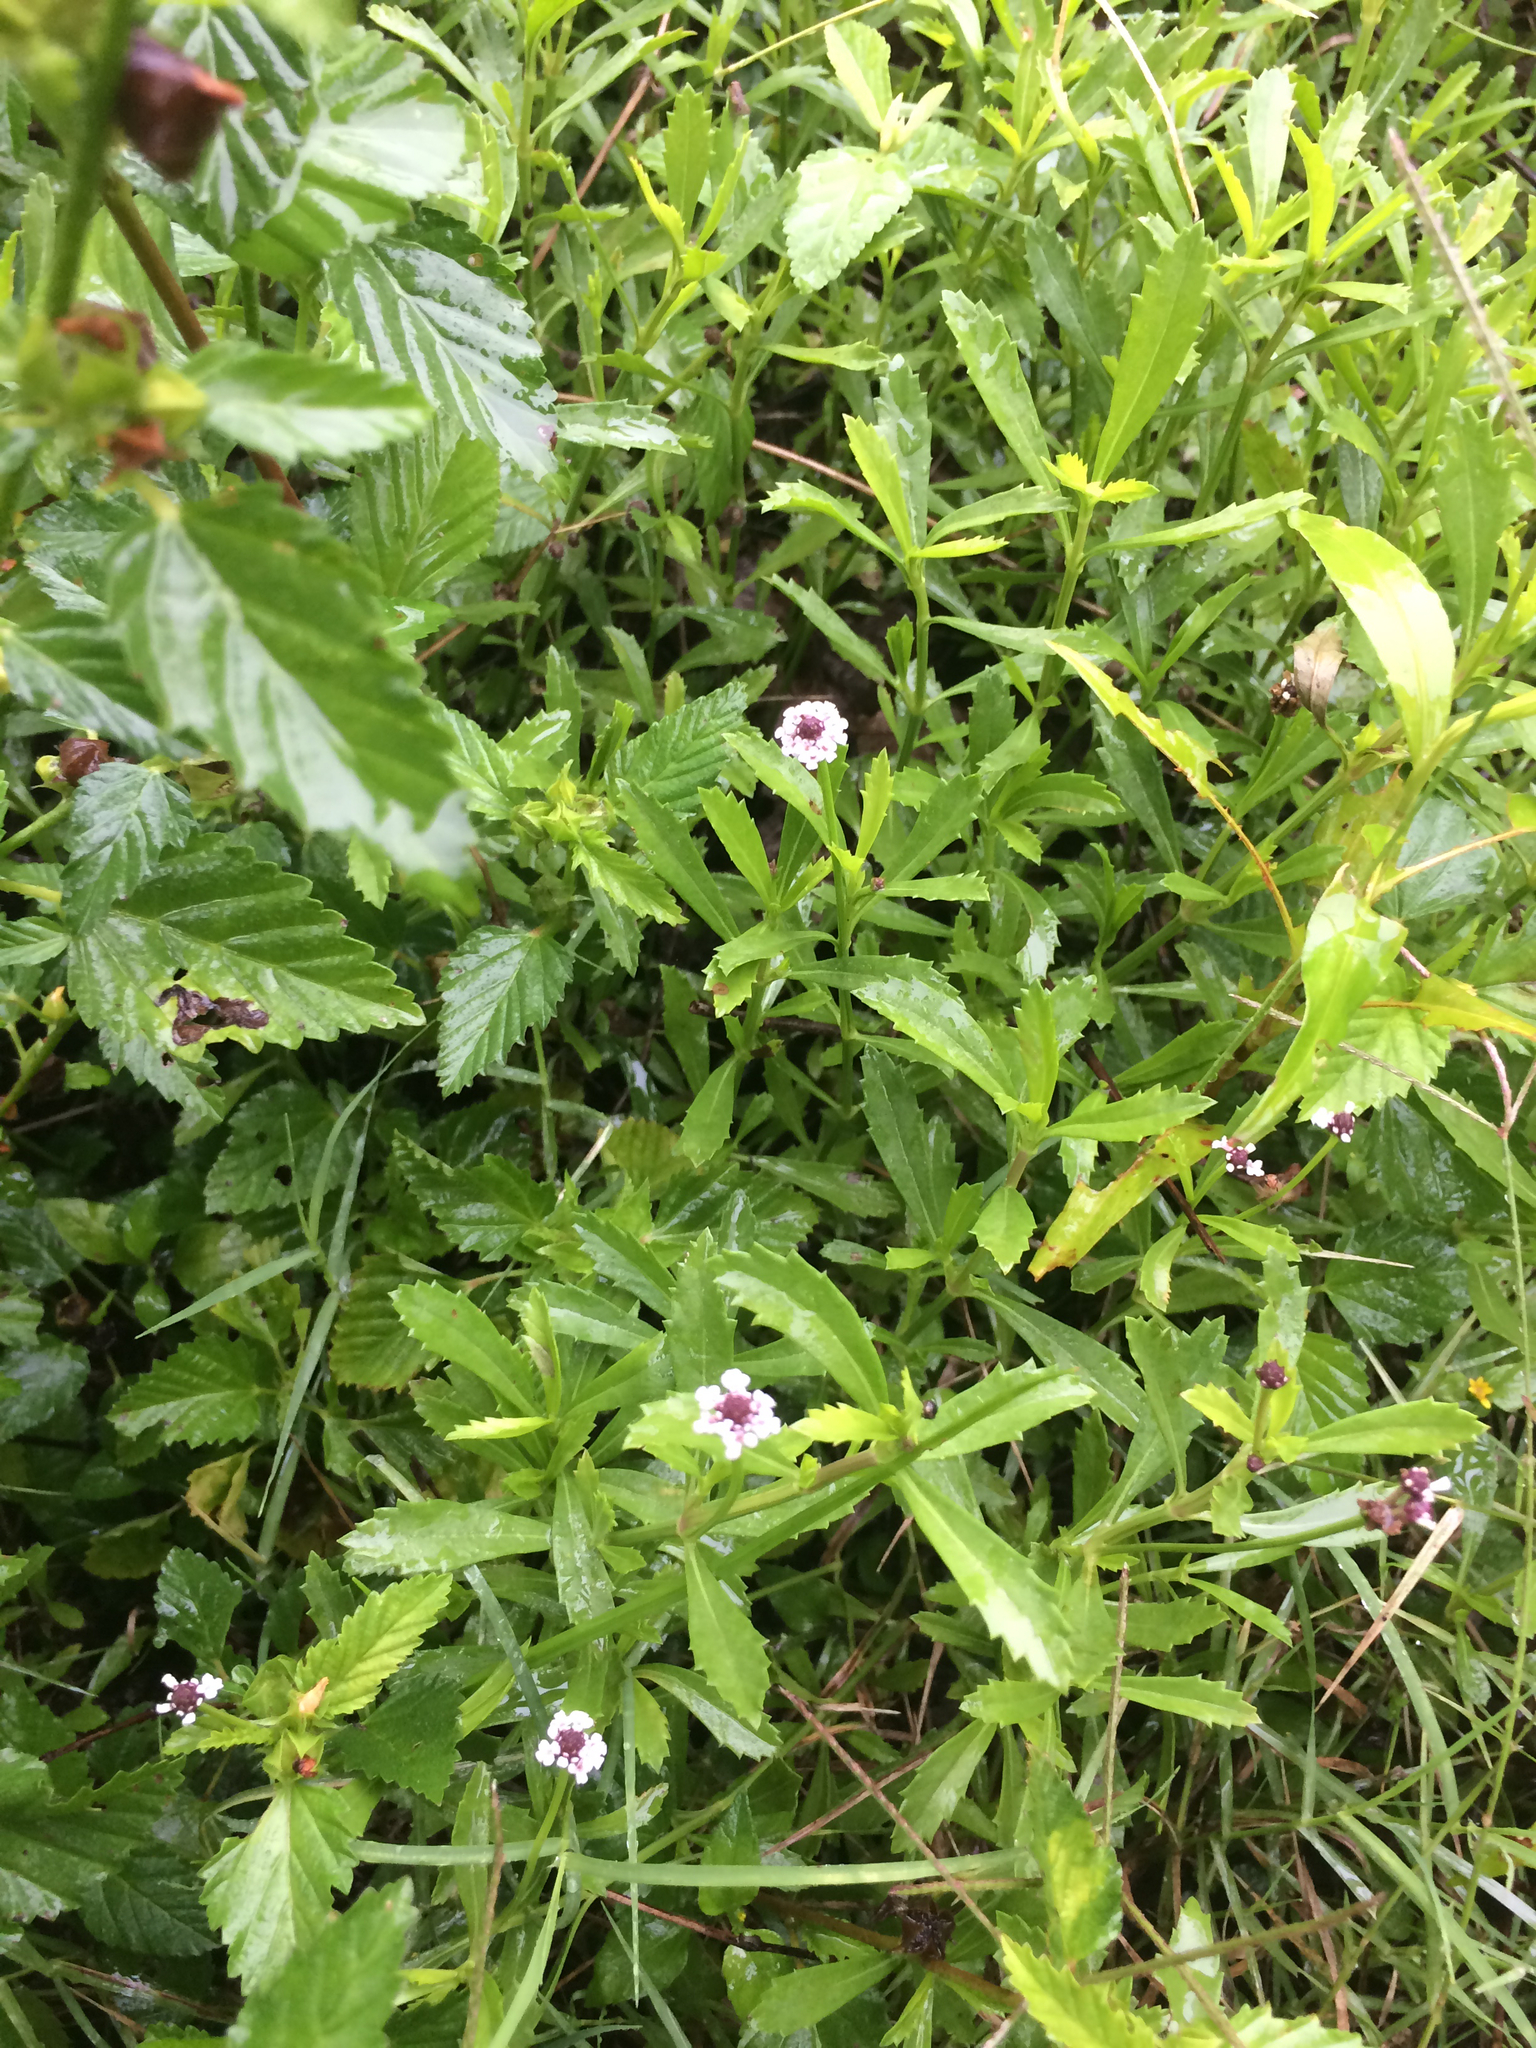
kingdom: Plantae
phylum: Tracheophyta
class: Magnoliopsida
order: Lamiales
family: Verbenaceae
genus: Phyla
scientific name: Phyla nodiflora
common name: Frogfruit
